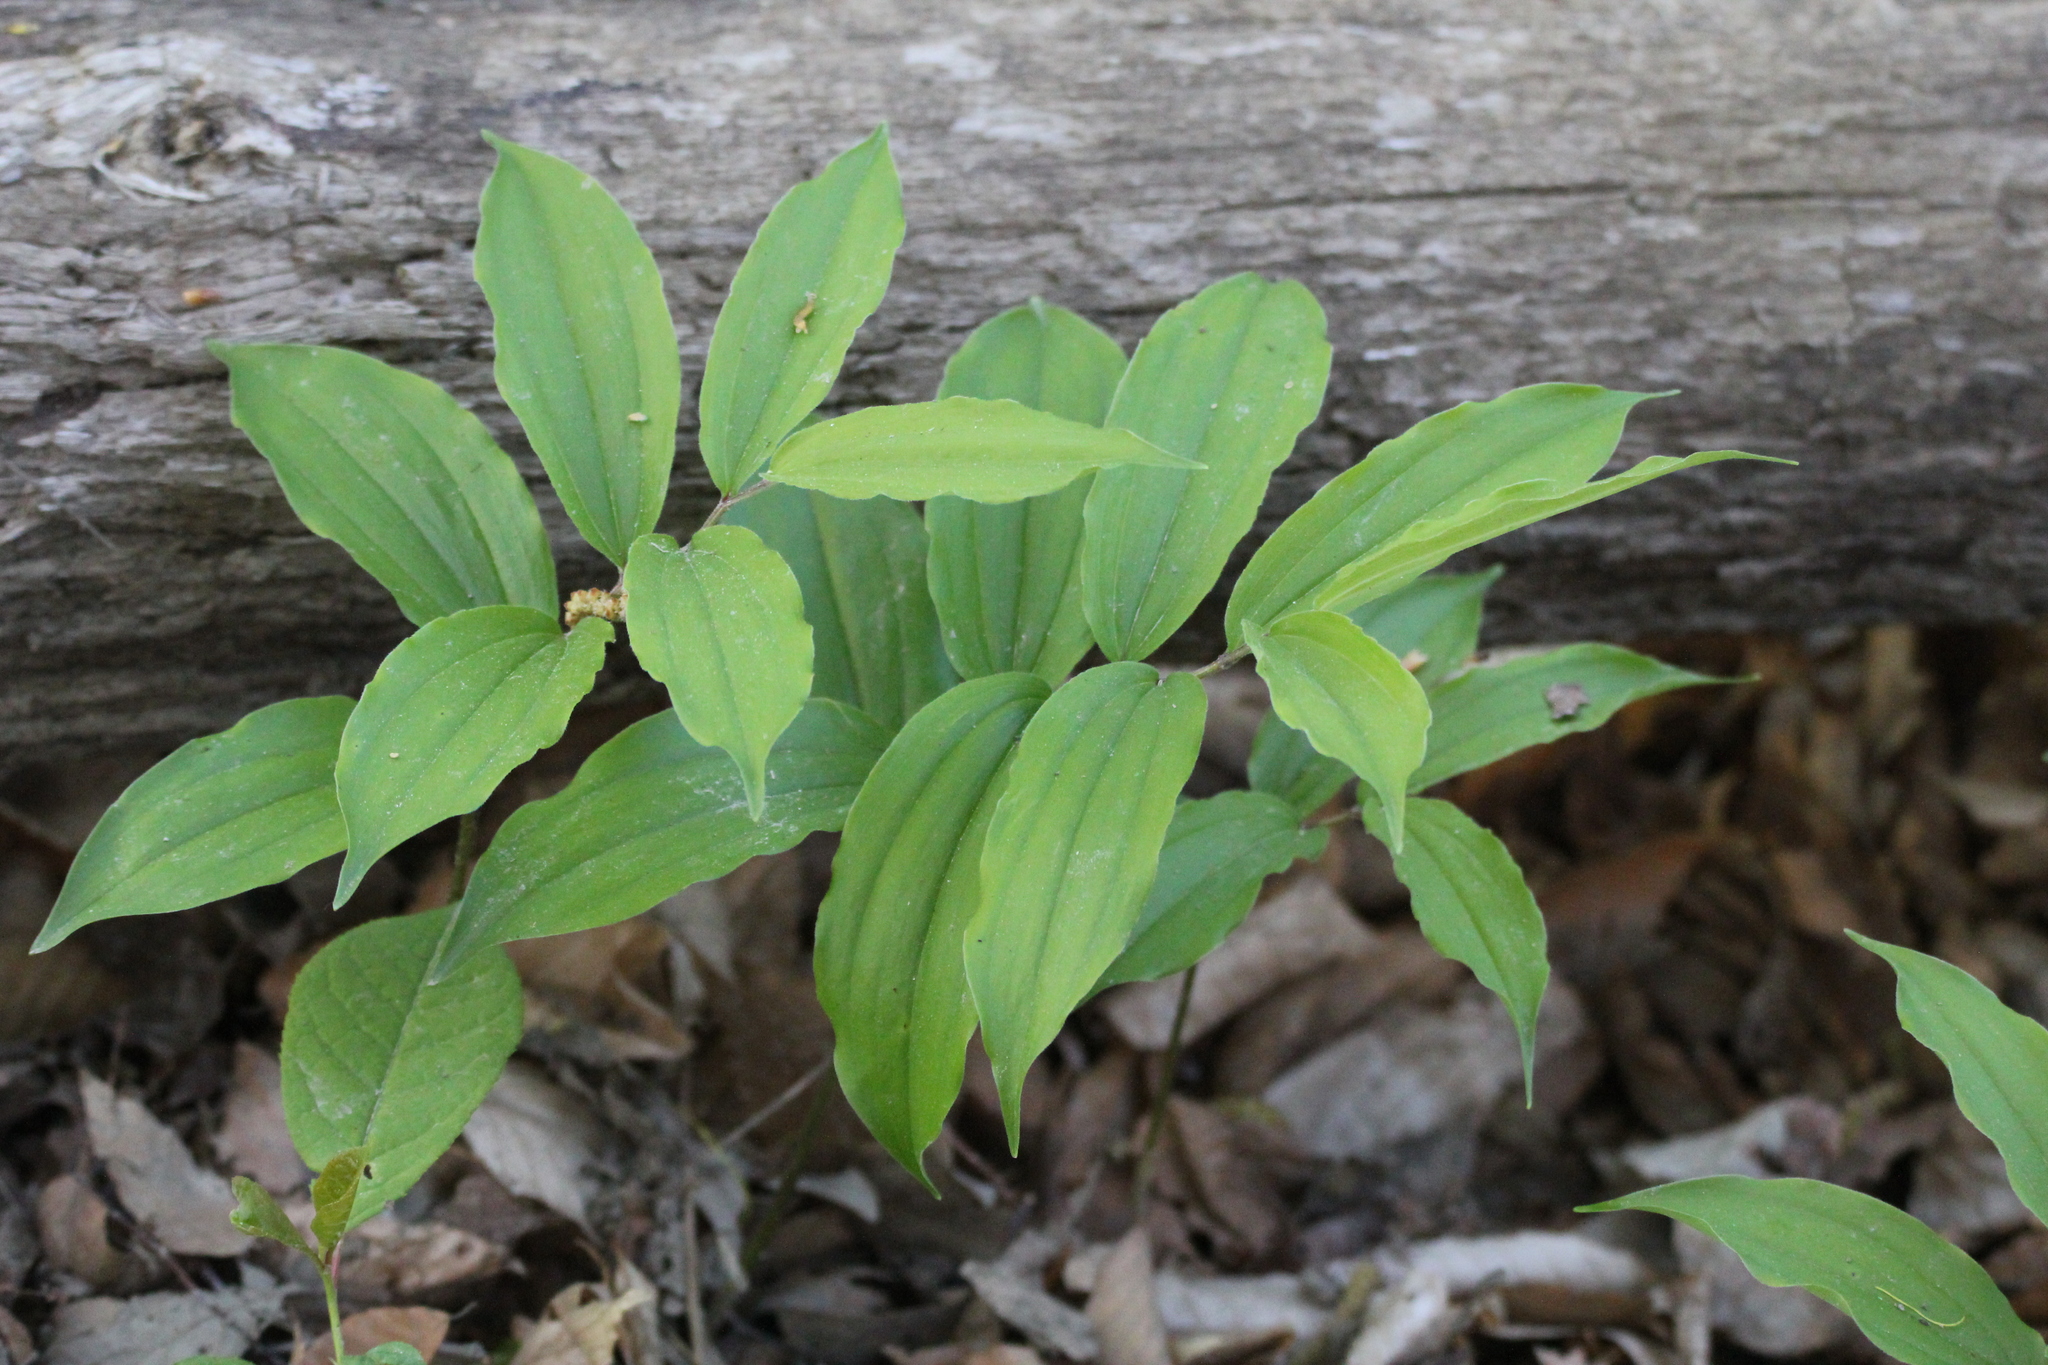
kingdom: Plantae
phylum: Tracheophyta
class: Liliopsida
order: Asparagales
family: Asparagaceae
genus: Maianthemum
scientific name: Maianthemum racemosum
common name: False spikenard
